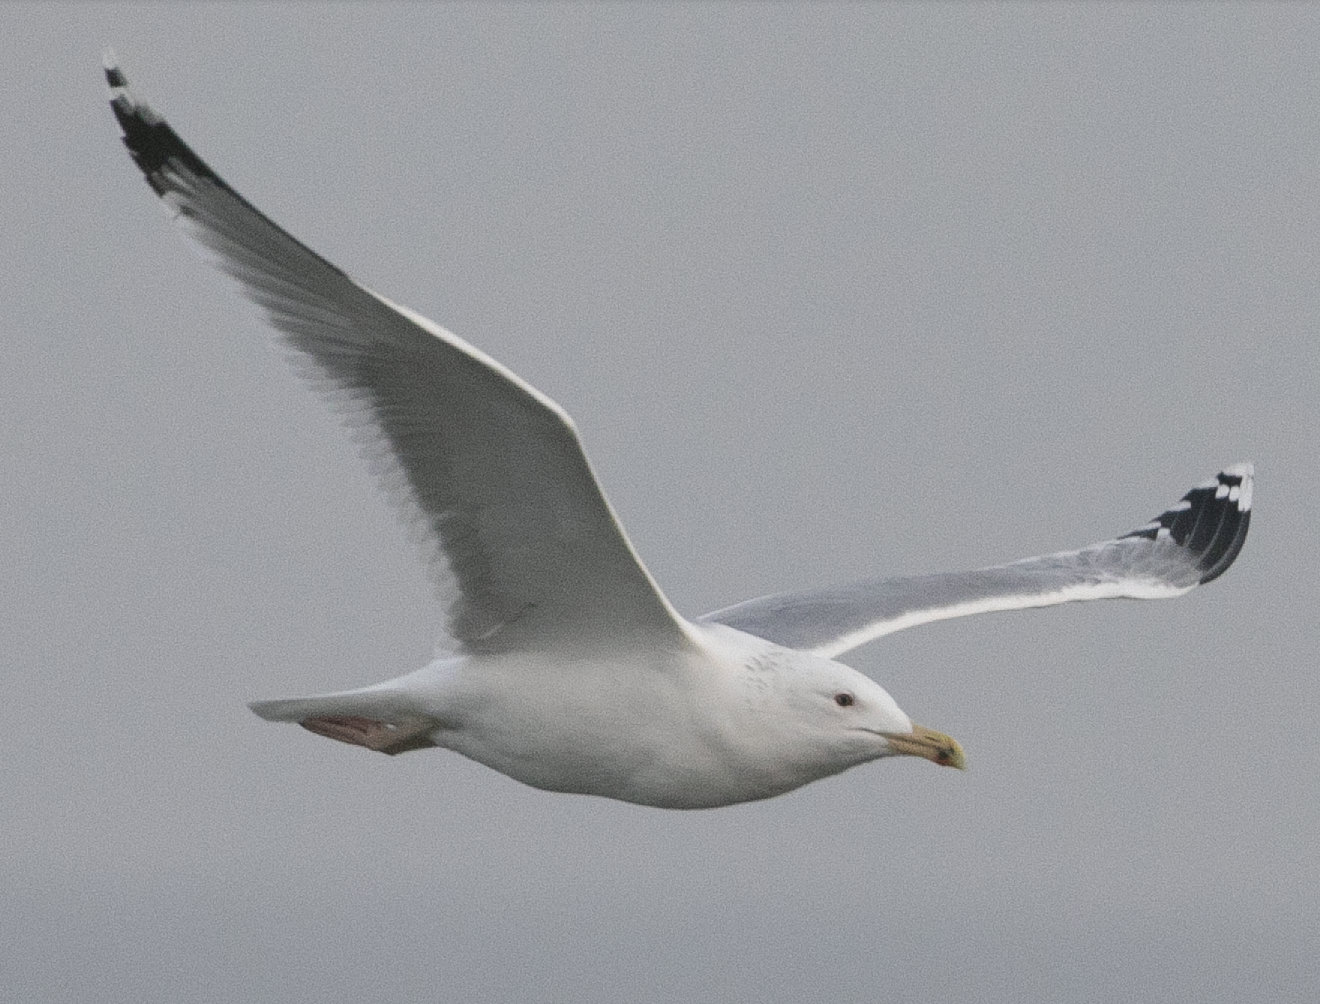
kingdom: Animalia
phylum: Chordata
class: Aves
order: Charadriiformes
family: Laridae
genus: Larus
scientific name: Larus cachinnans
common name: Caspian gull
